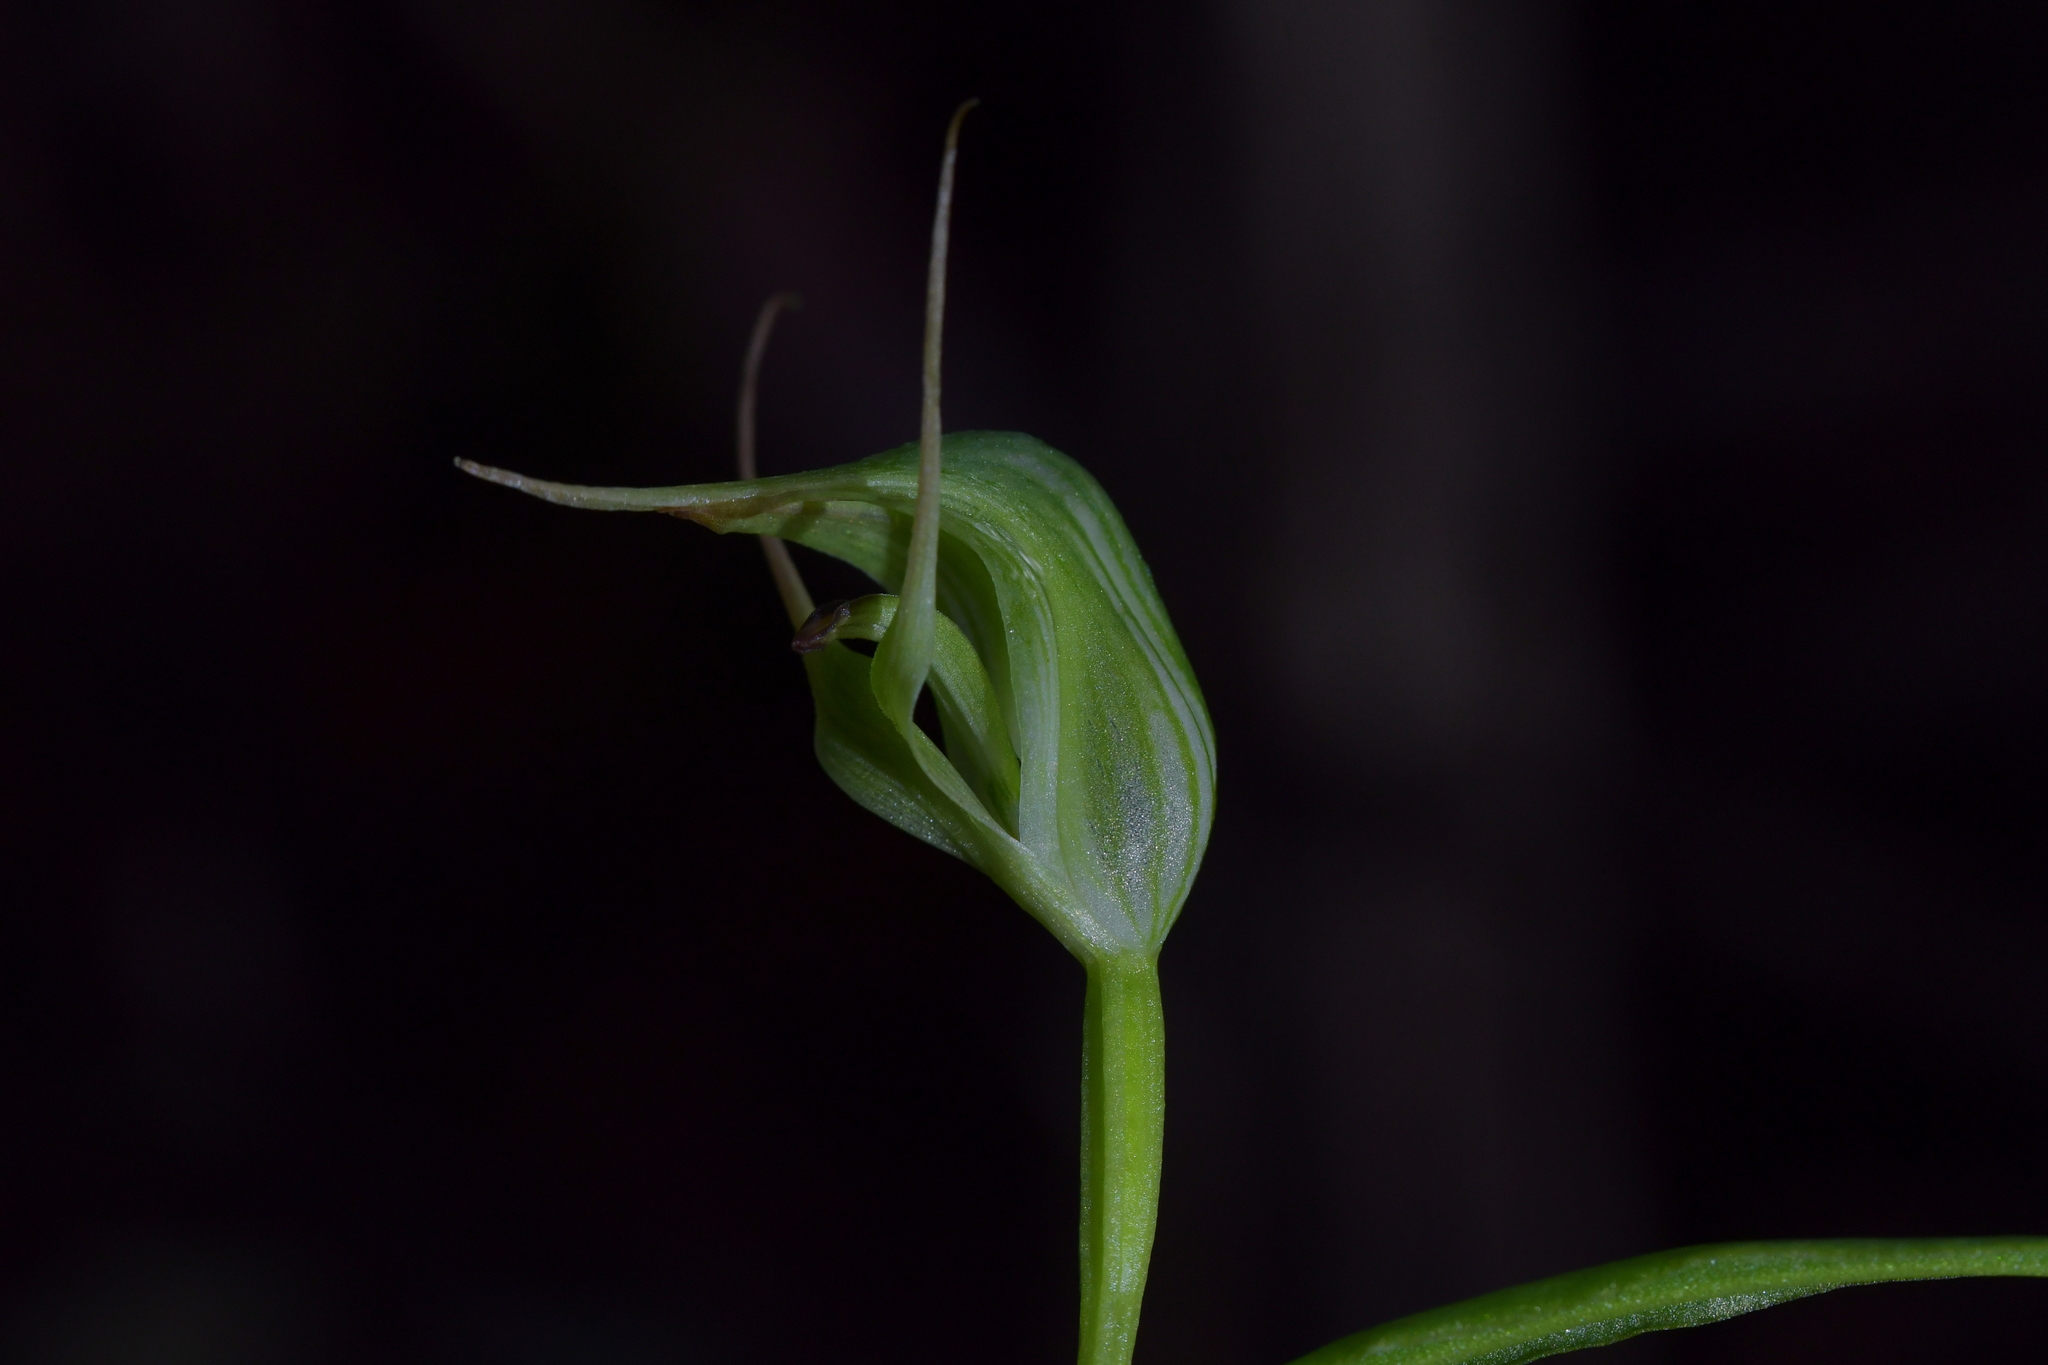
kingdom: Plantae
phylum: Tracheophyta
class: Liliopsida
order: Asparagales
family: Orchidaceae
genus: Pterostylis
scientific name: Pterostylis agathicola
